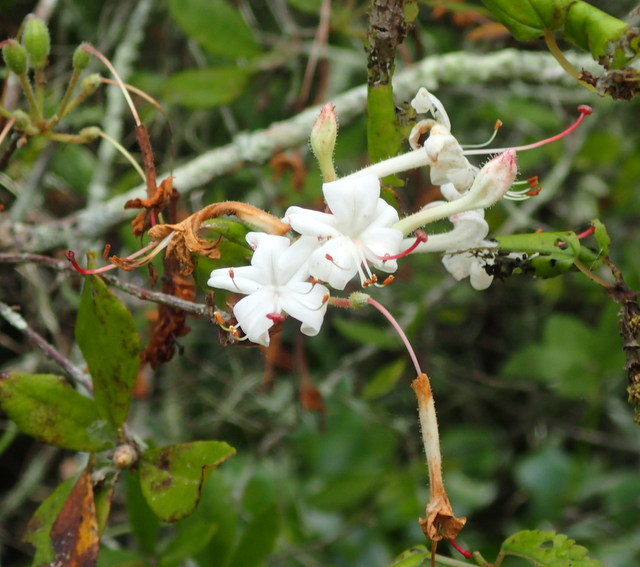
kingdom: Plantae
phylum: Tracheophyta
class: Magnoliopsida
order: Ericales
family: Ericaceae
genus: Rhododendron
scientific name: Rhododendron serrulatum
